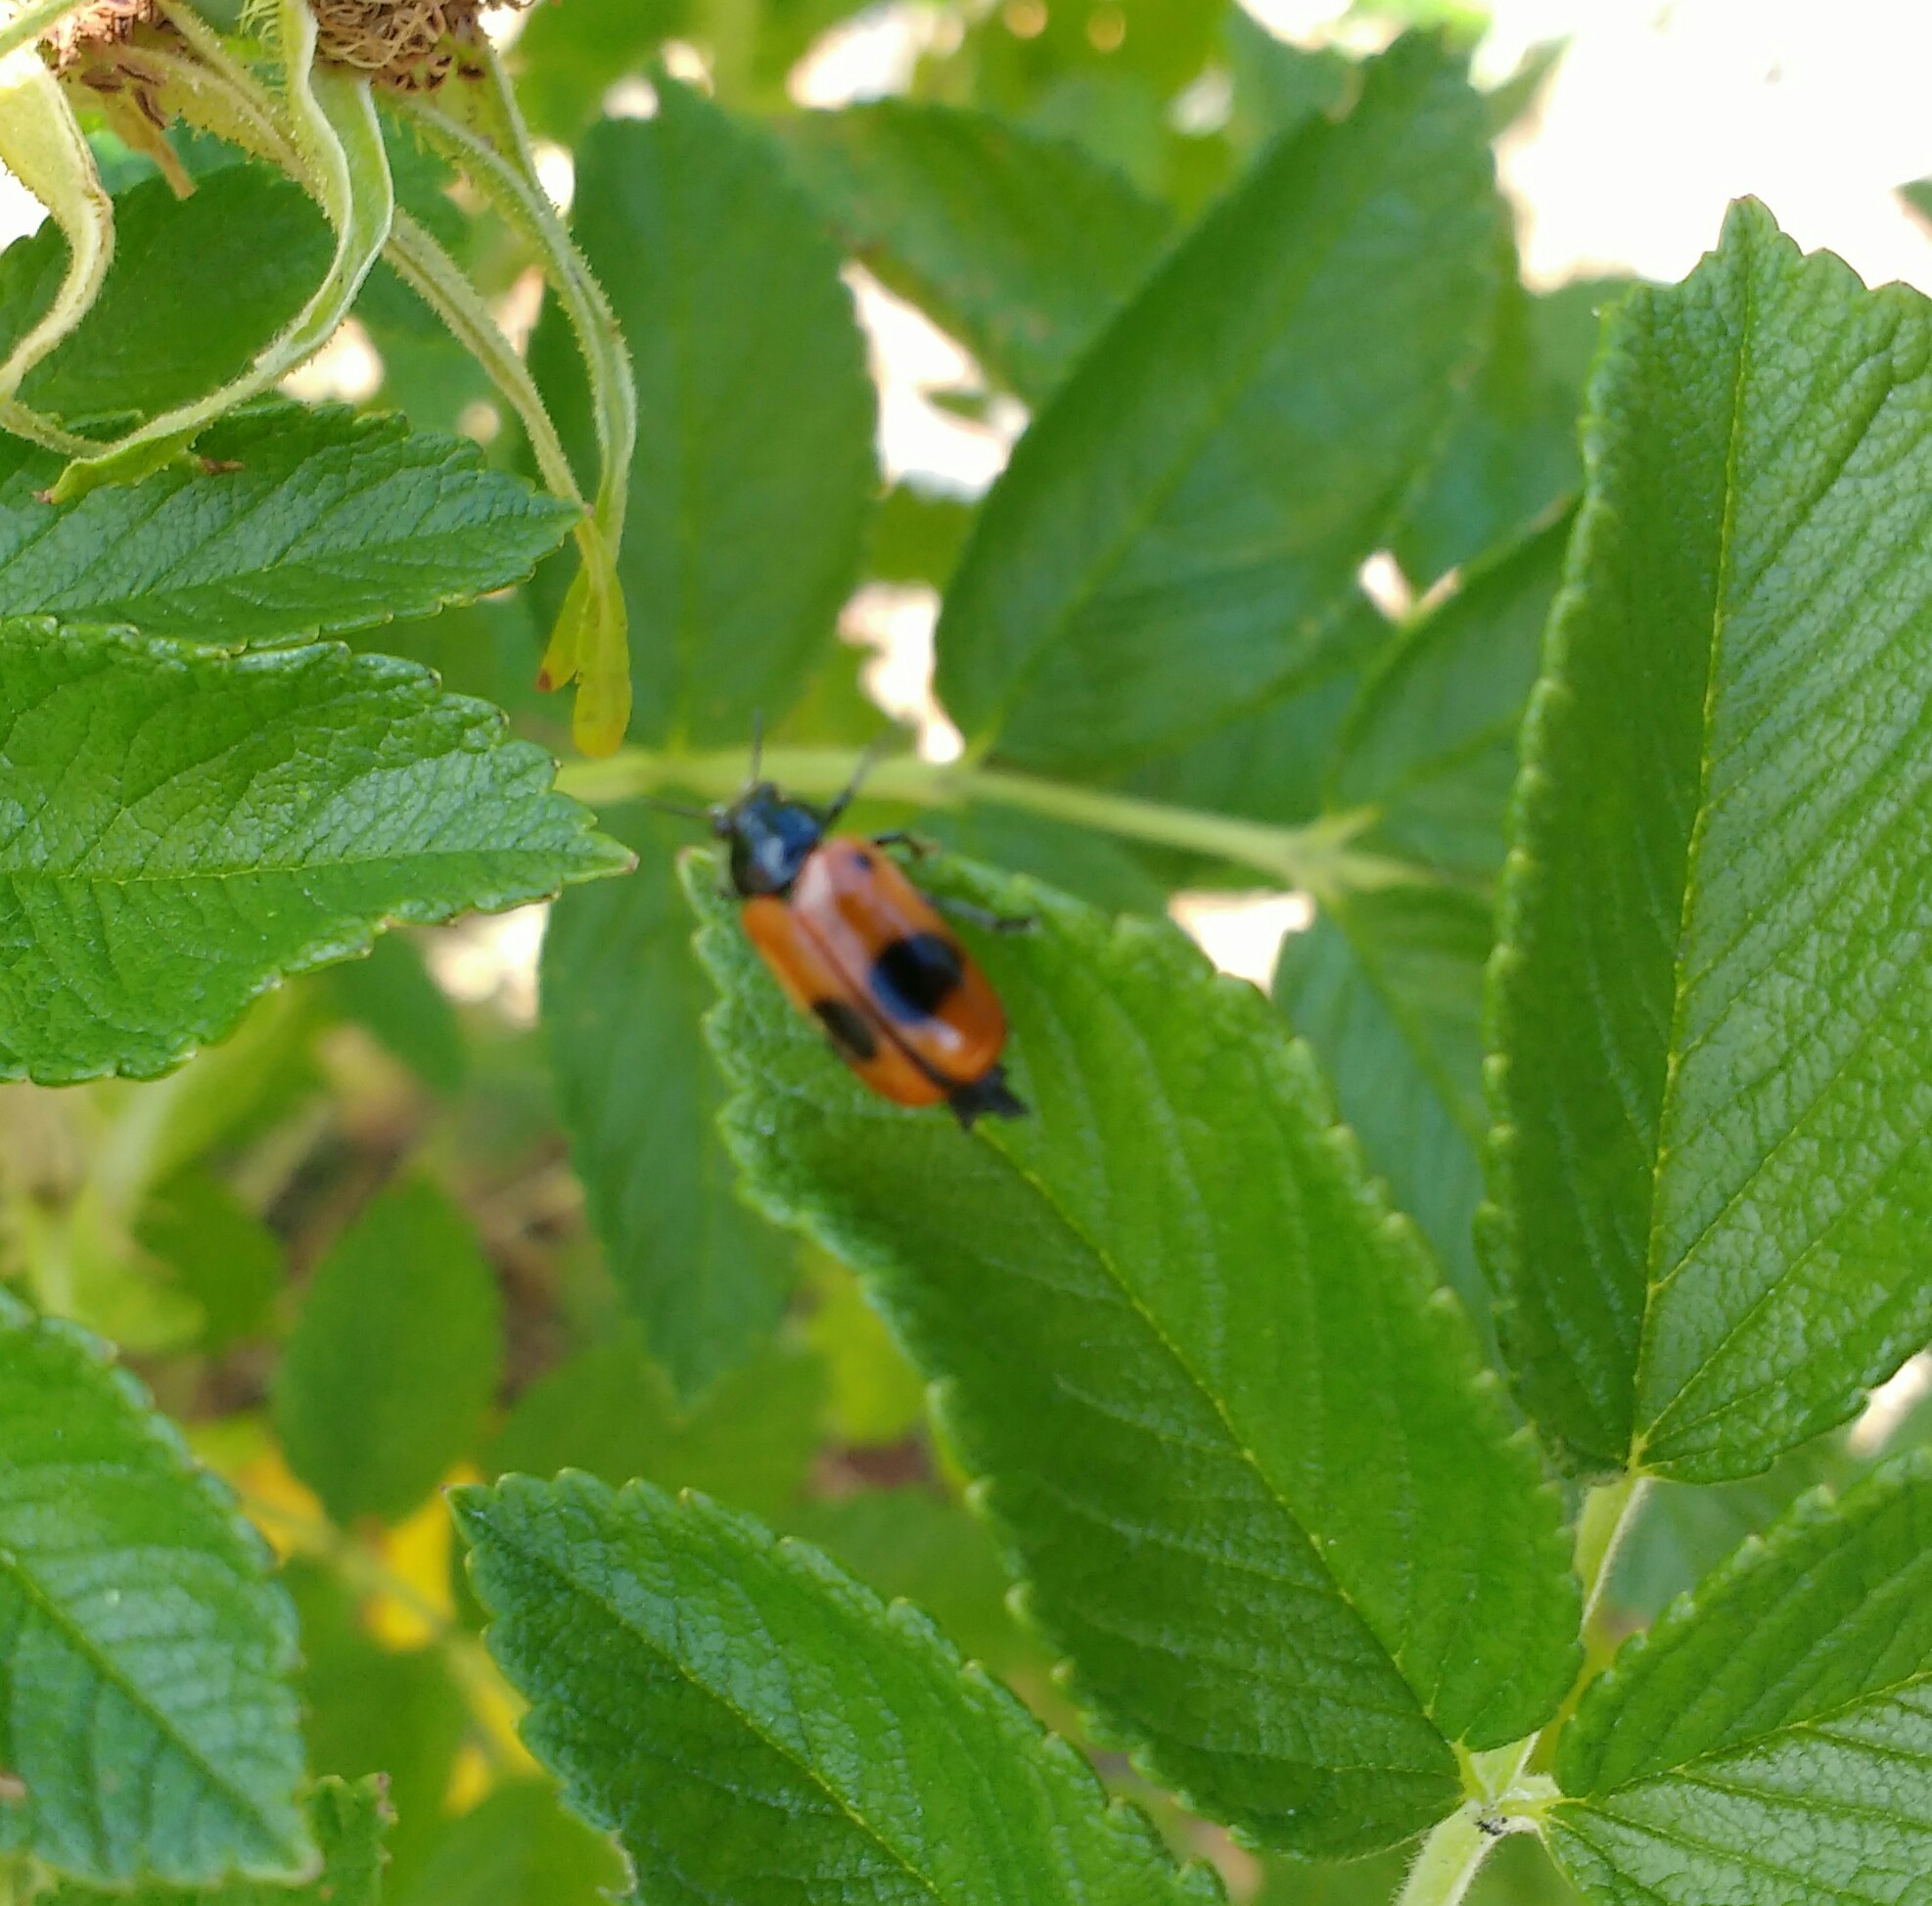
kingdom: Animalia
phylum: Arthropoda
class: Insecta
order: Coleoptera
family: Chrysomelidae
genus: Clytra
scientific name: Clytra laeviuscula
